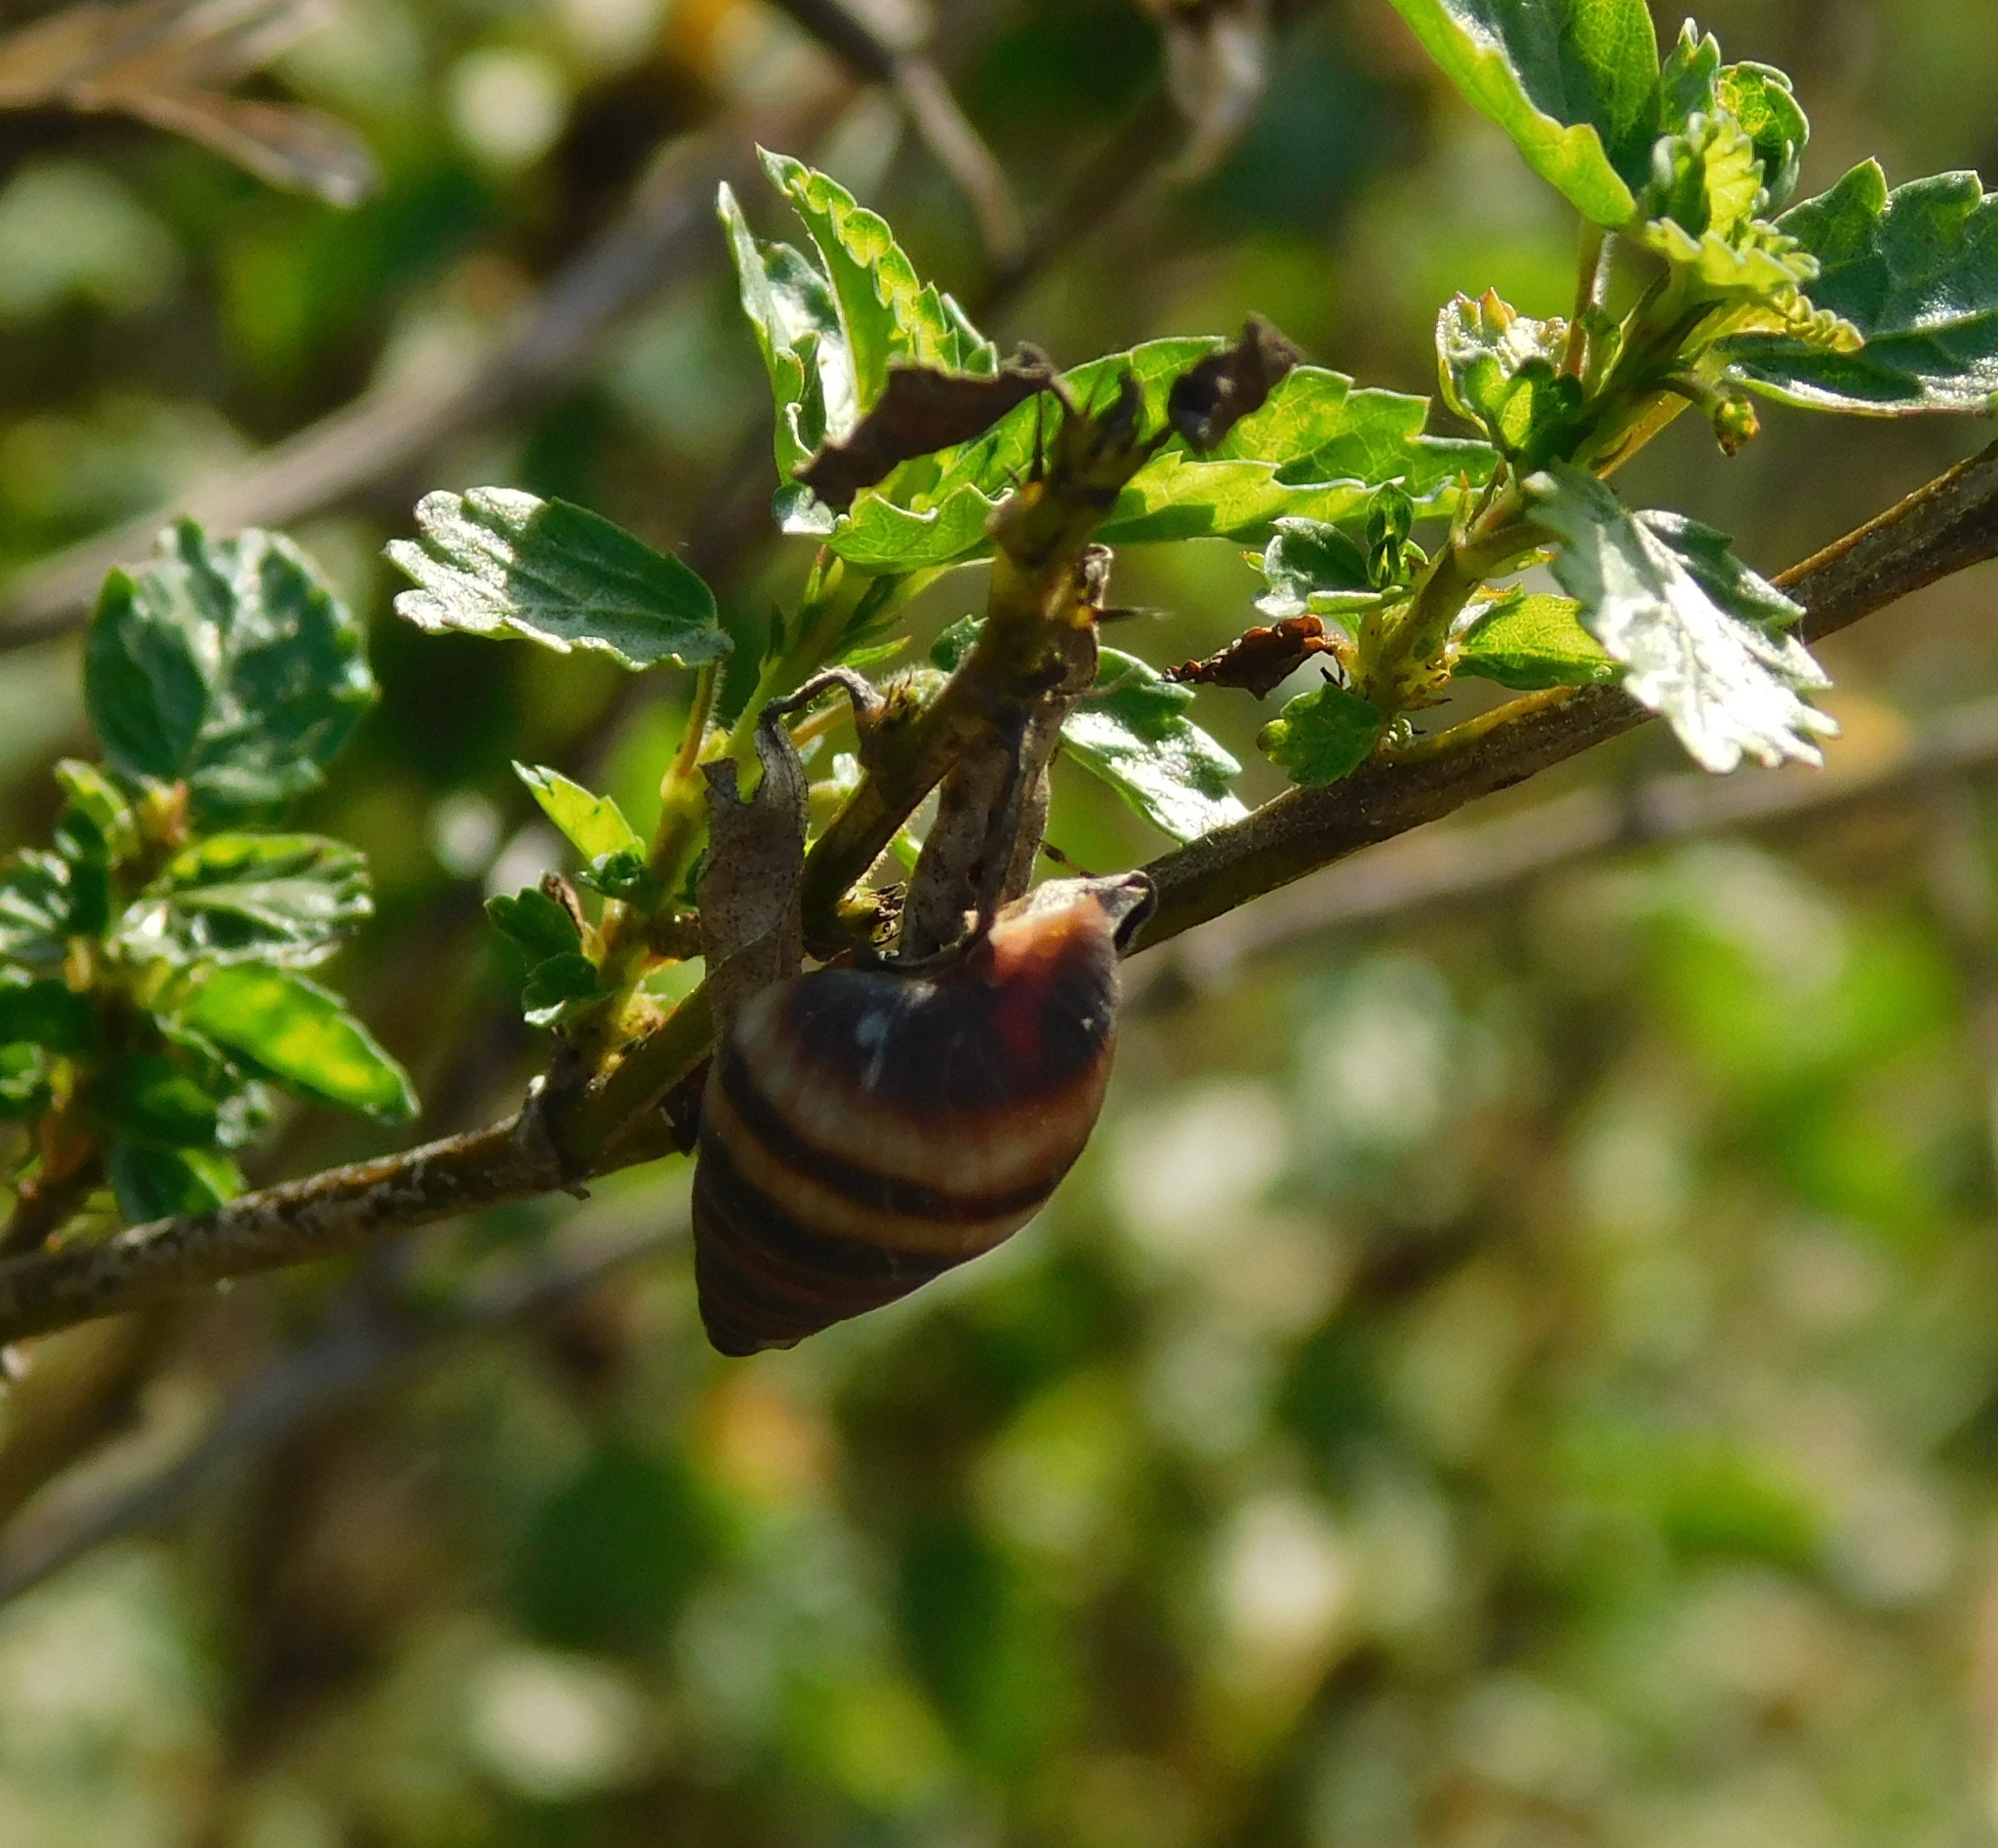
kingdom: Animalia
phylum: Mollusca
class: Gastropoda
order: Stylommatophora
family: Bulimulidae
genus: Bulimulus
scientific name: Bulimulus guadalupensis
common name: West indian bulimulus
